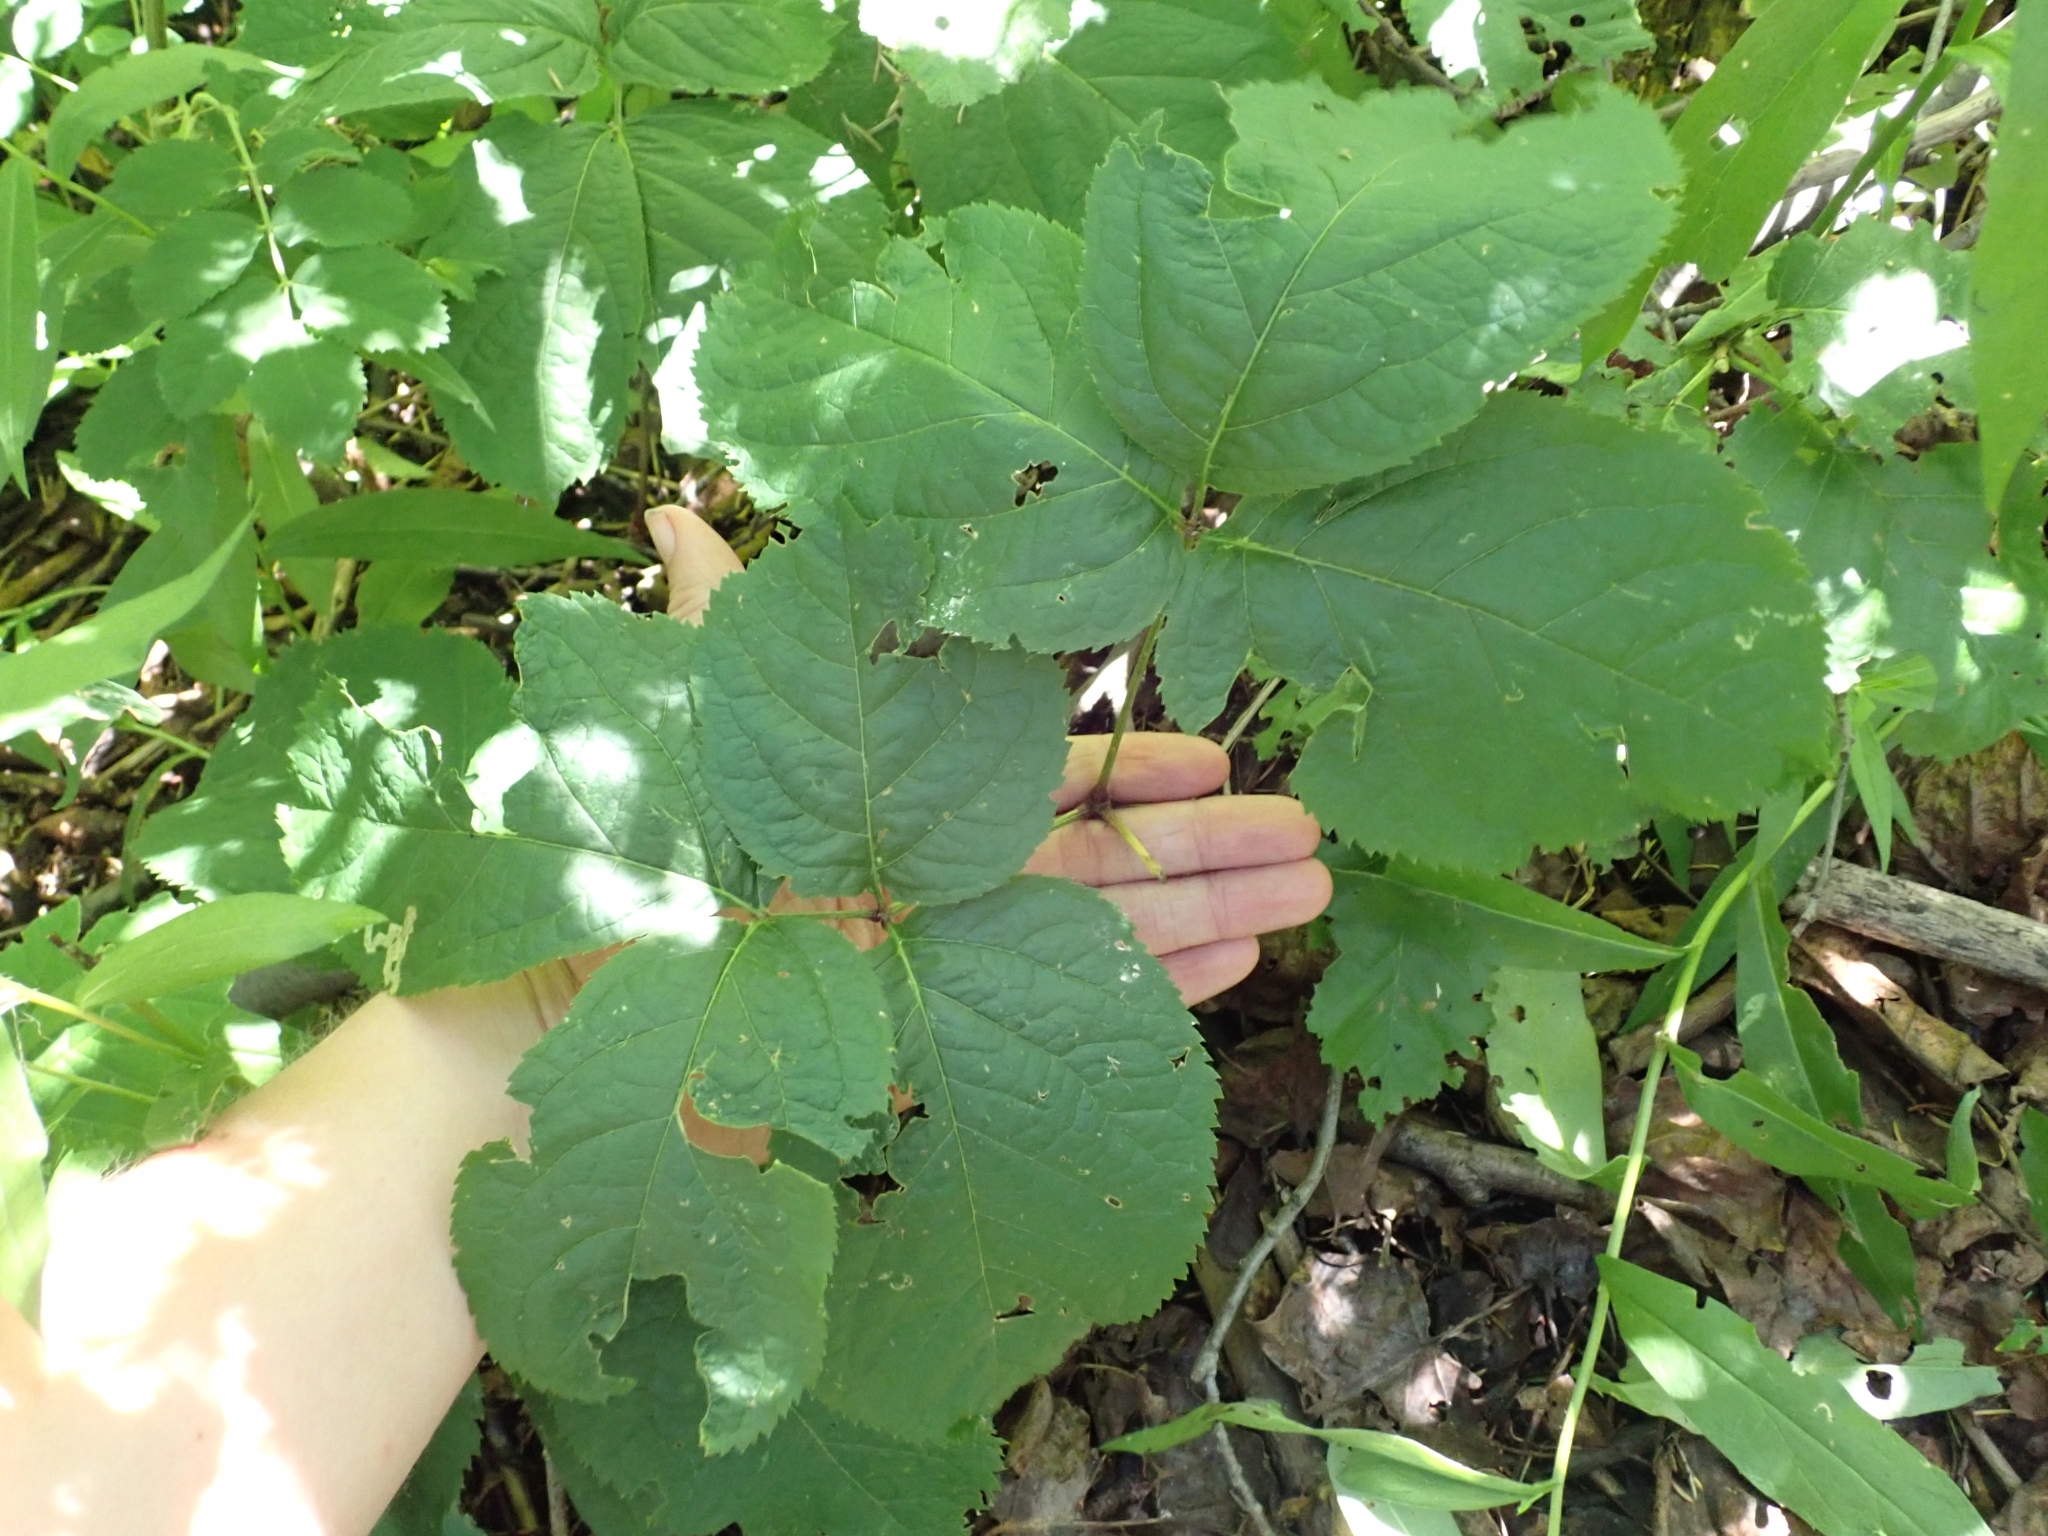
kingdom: Plantae
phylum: Tracheophyta
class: Magnoliopsida
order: Apiales
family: Araliaceae
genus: Aralia
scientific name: Aralia nudicaulis
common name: Wild sarsaparilla
